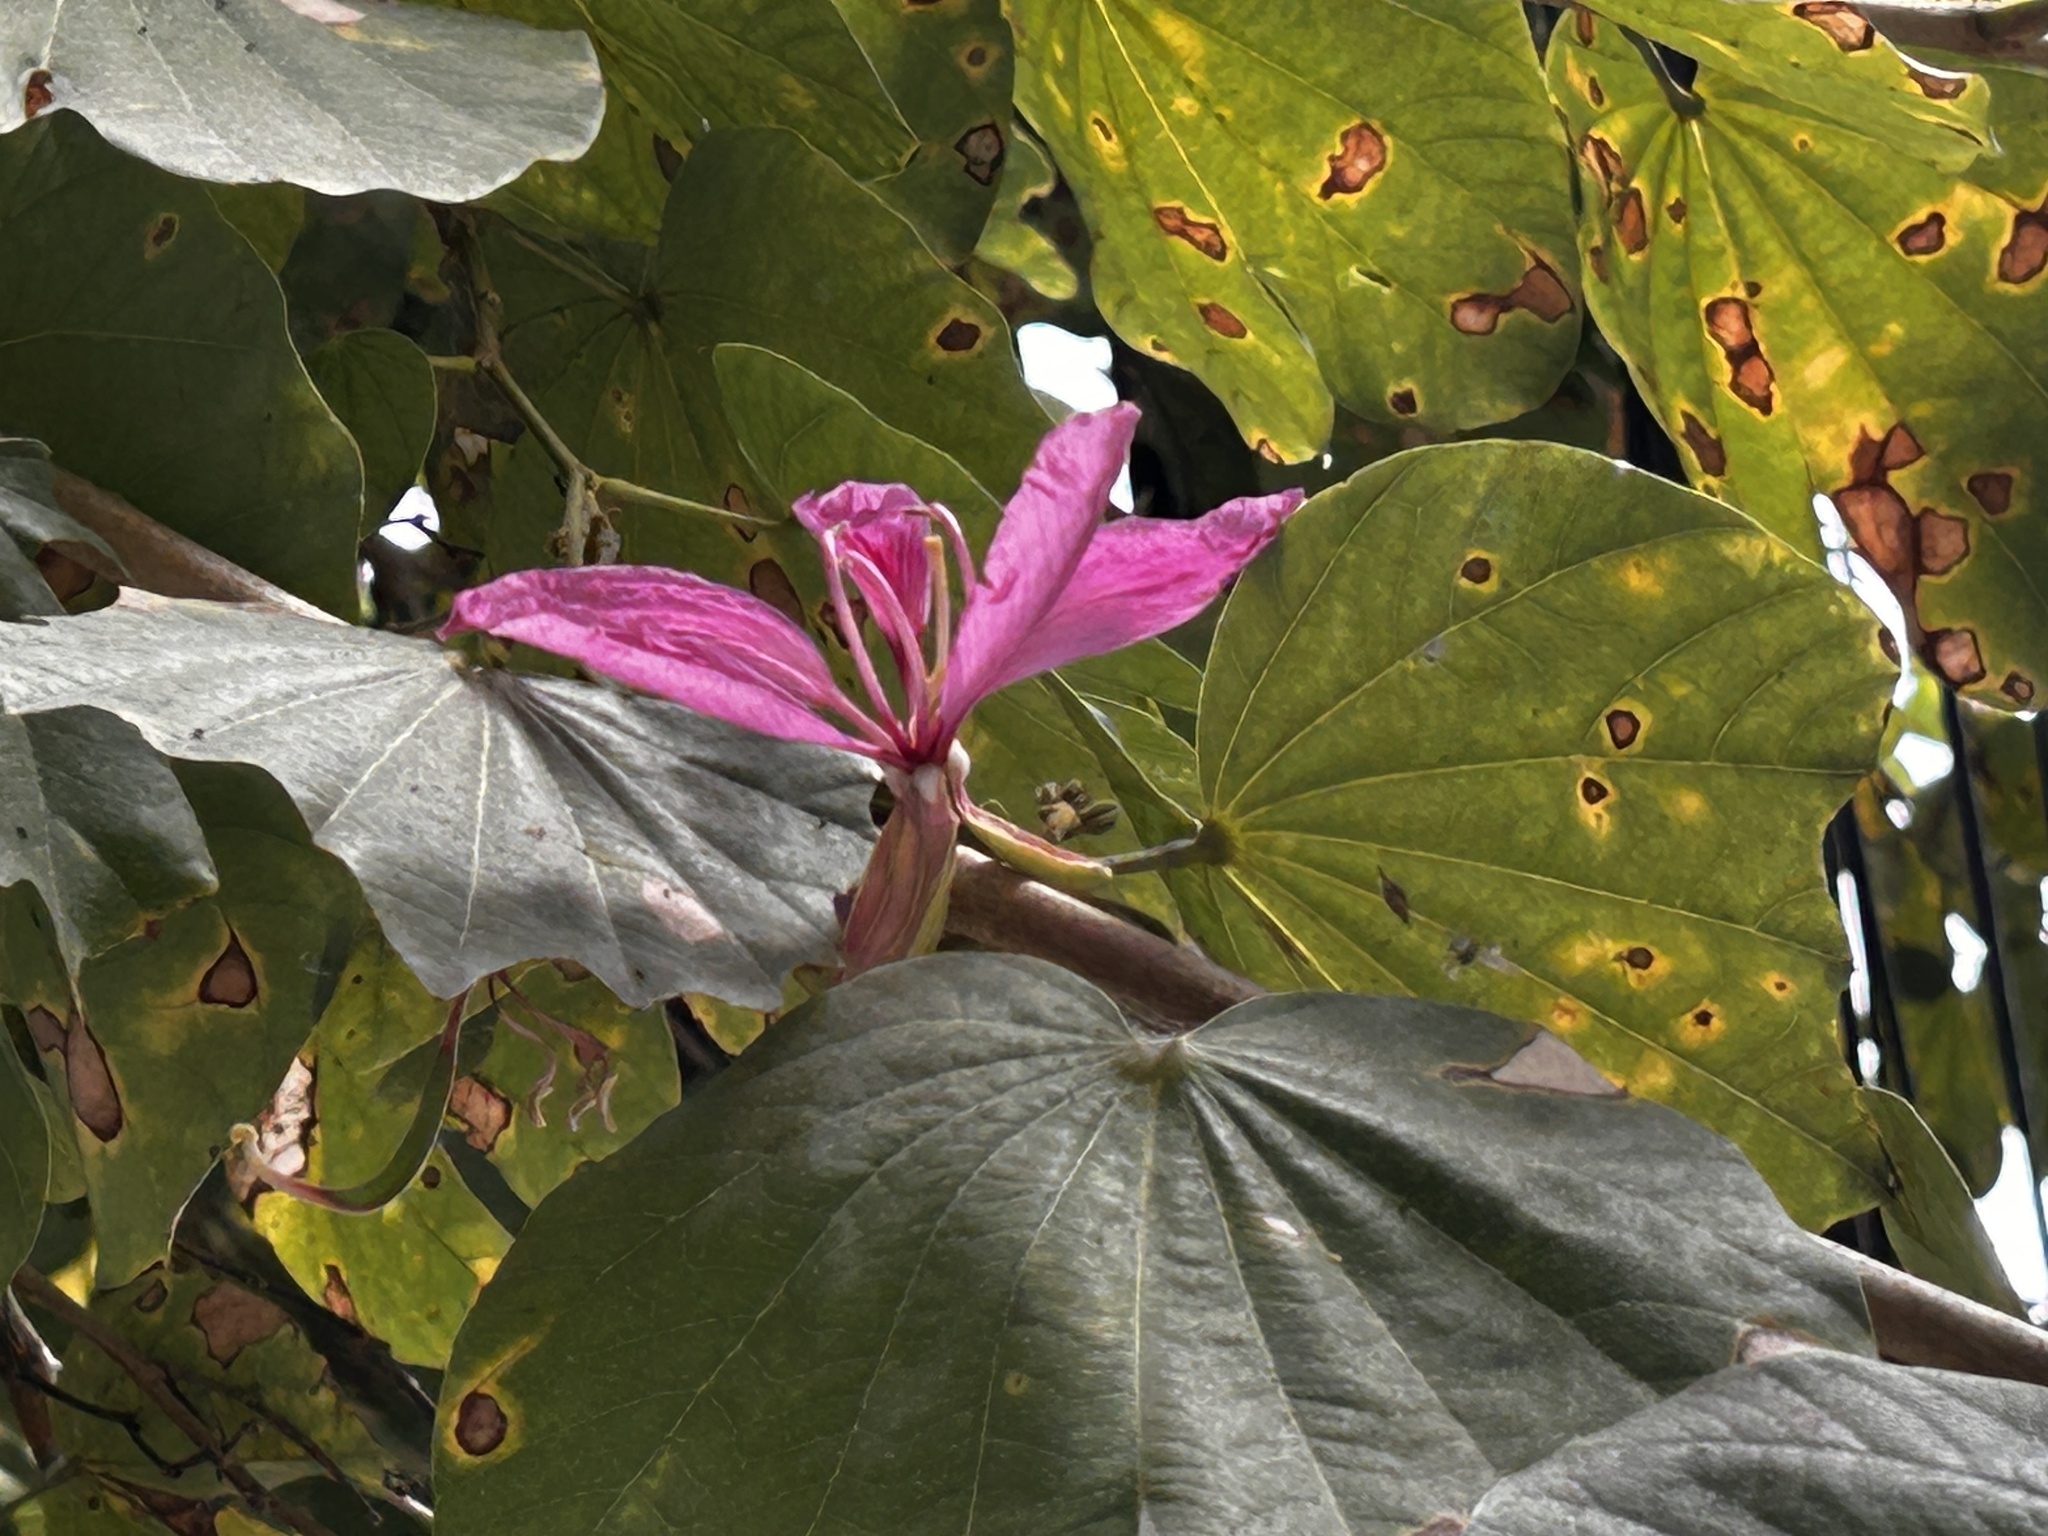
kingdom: Plantae
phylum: Tracheophyta
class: Magnoliopsida
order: Fabales
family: Fabaceae
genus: Bauhinia
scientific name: Bauhinia purpurea
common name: Butterfly-tree
